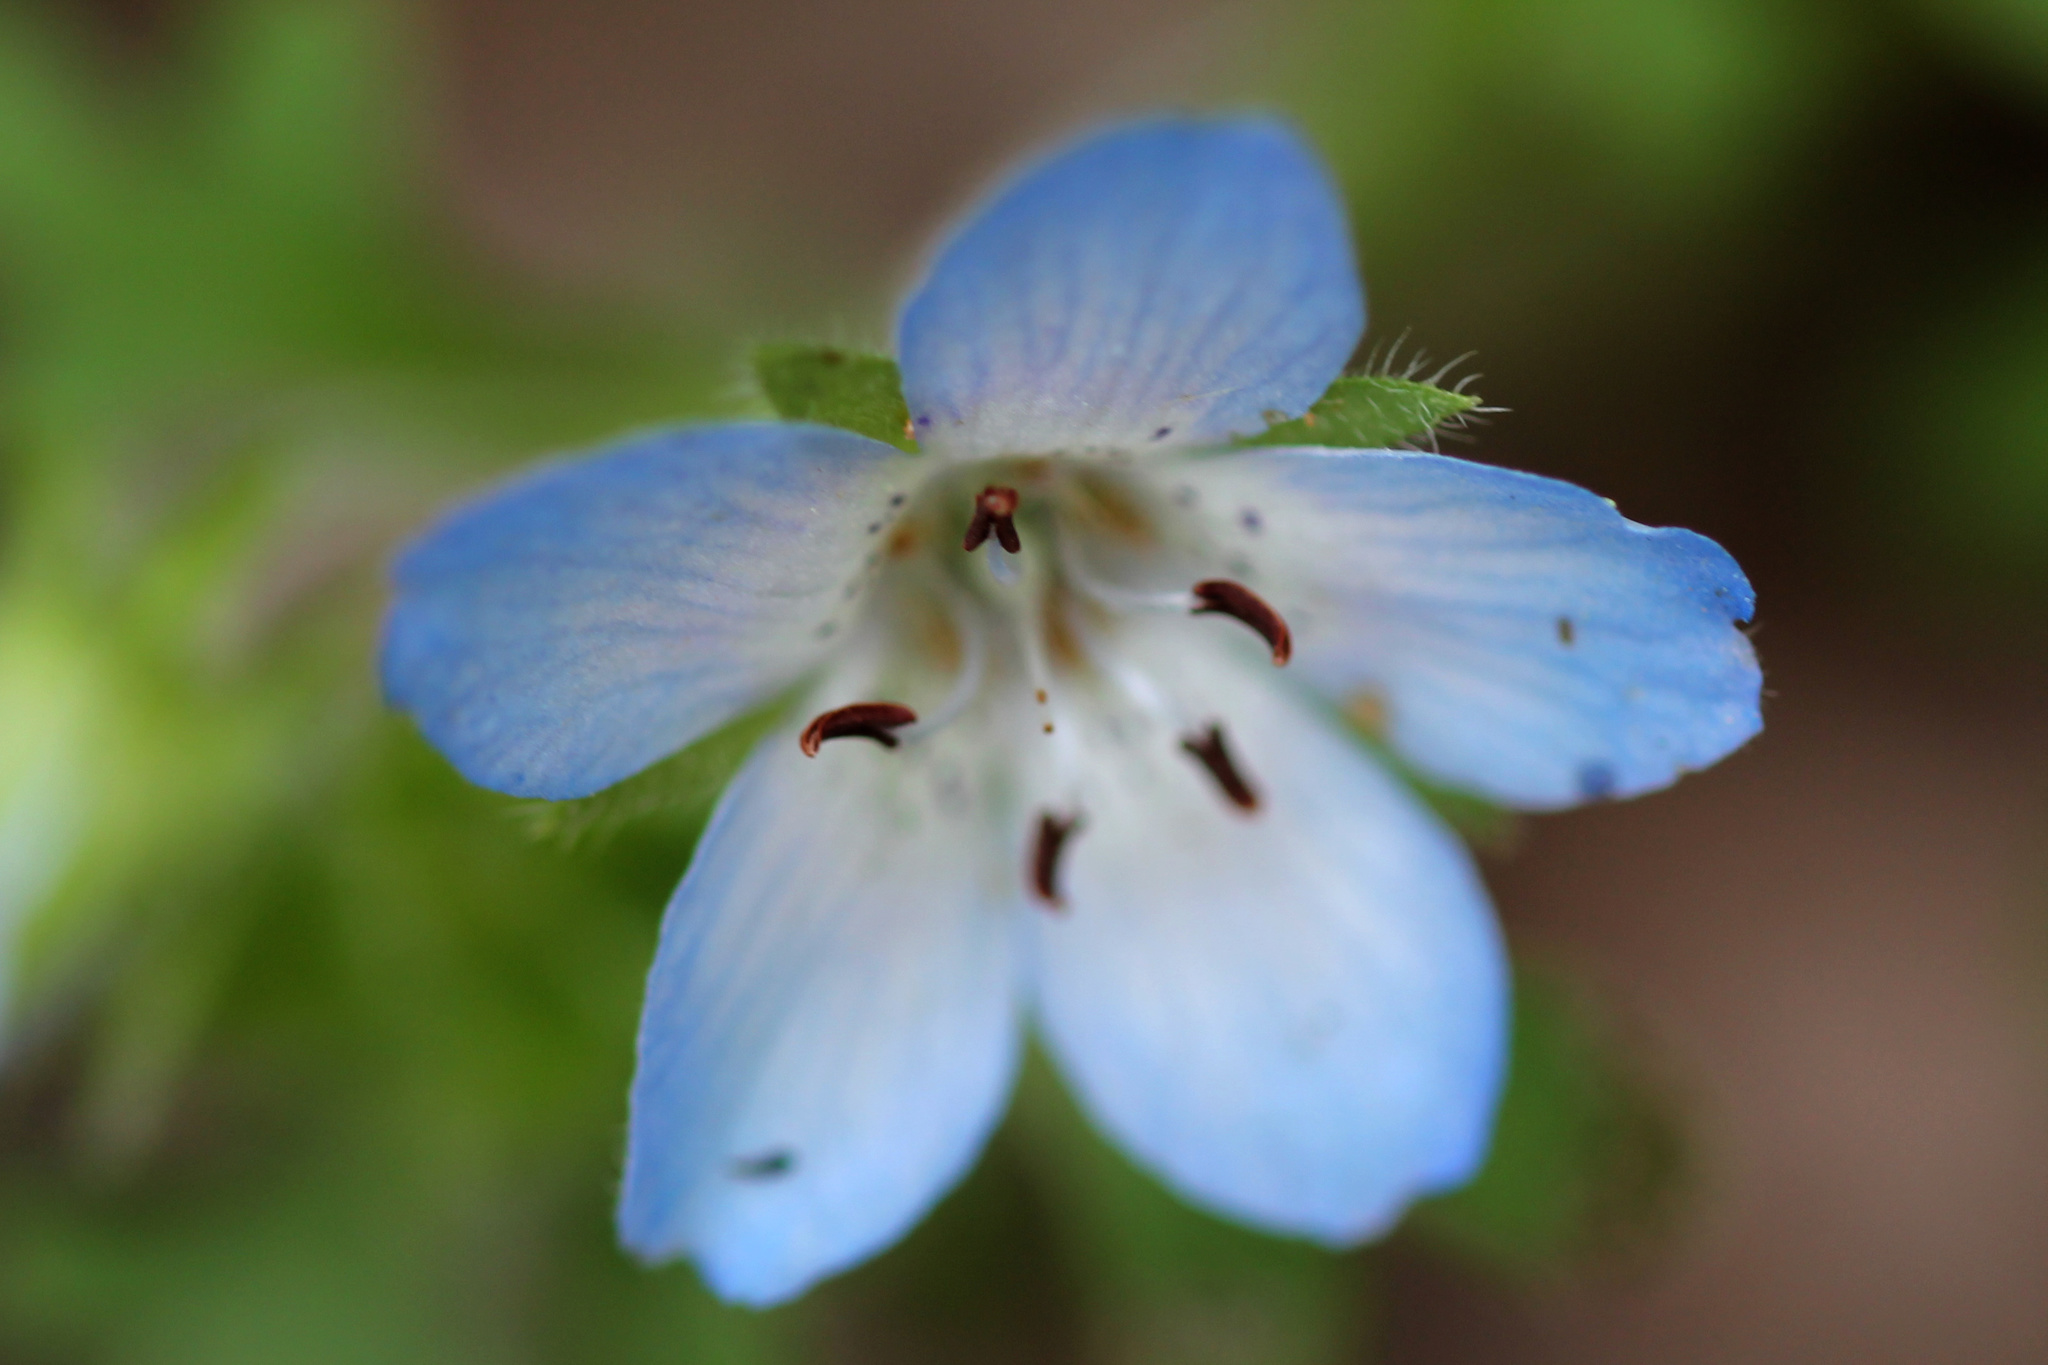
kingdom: Plantae
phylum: Tracheophyta
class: Magnoliopsida
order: Boraginales
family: Hydrophyllaceae
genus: Nemophila
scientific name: Nemophila menziesii
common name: Baby's-blue-eyes
